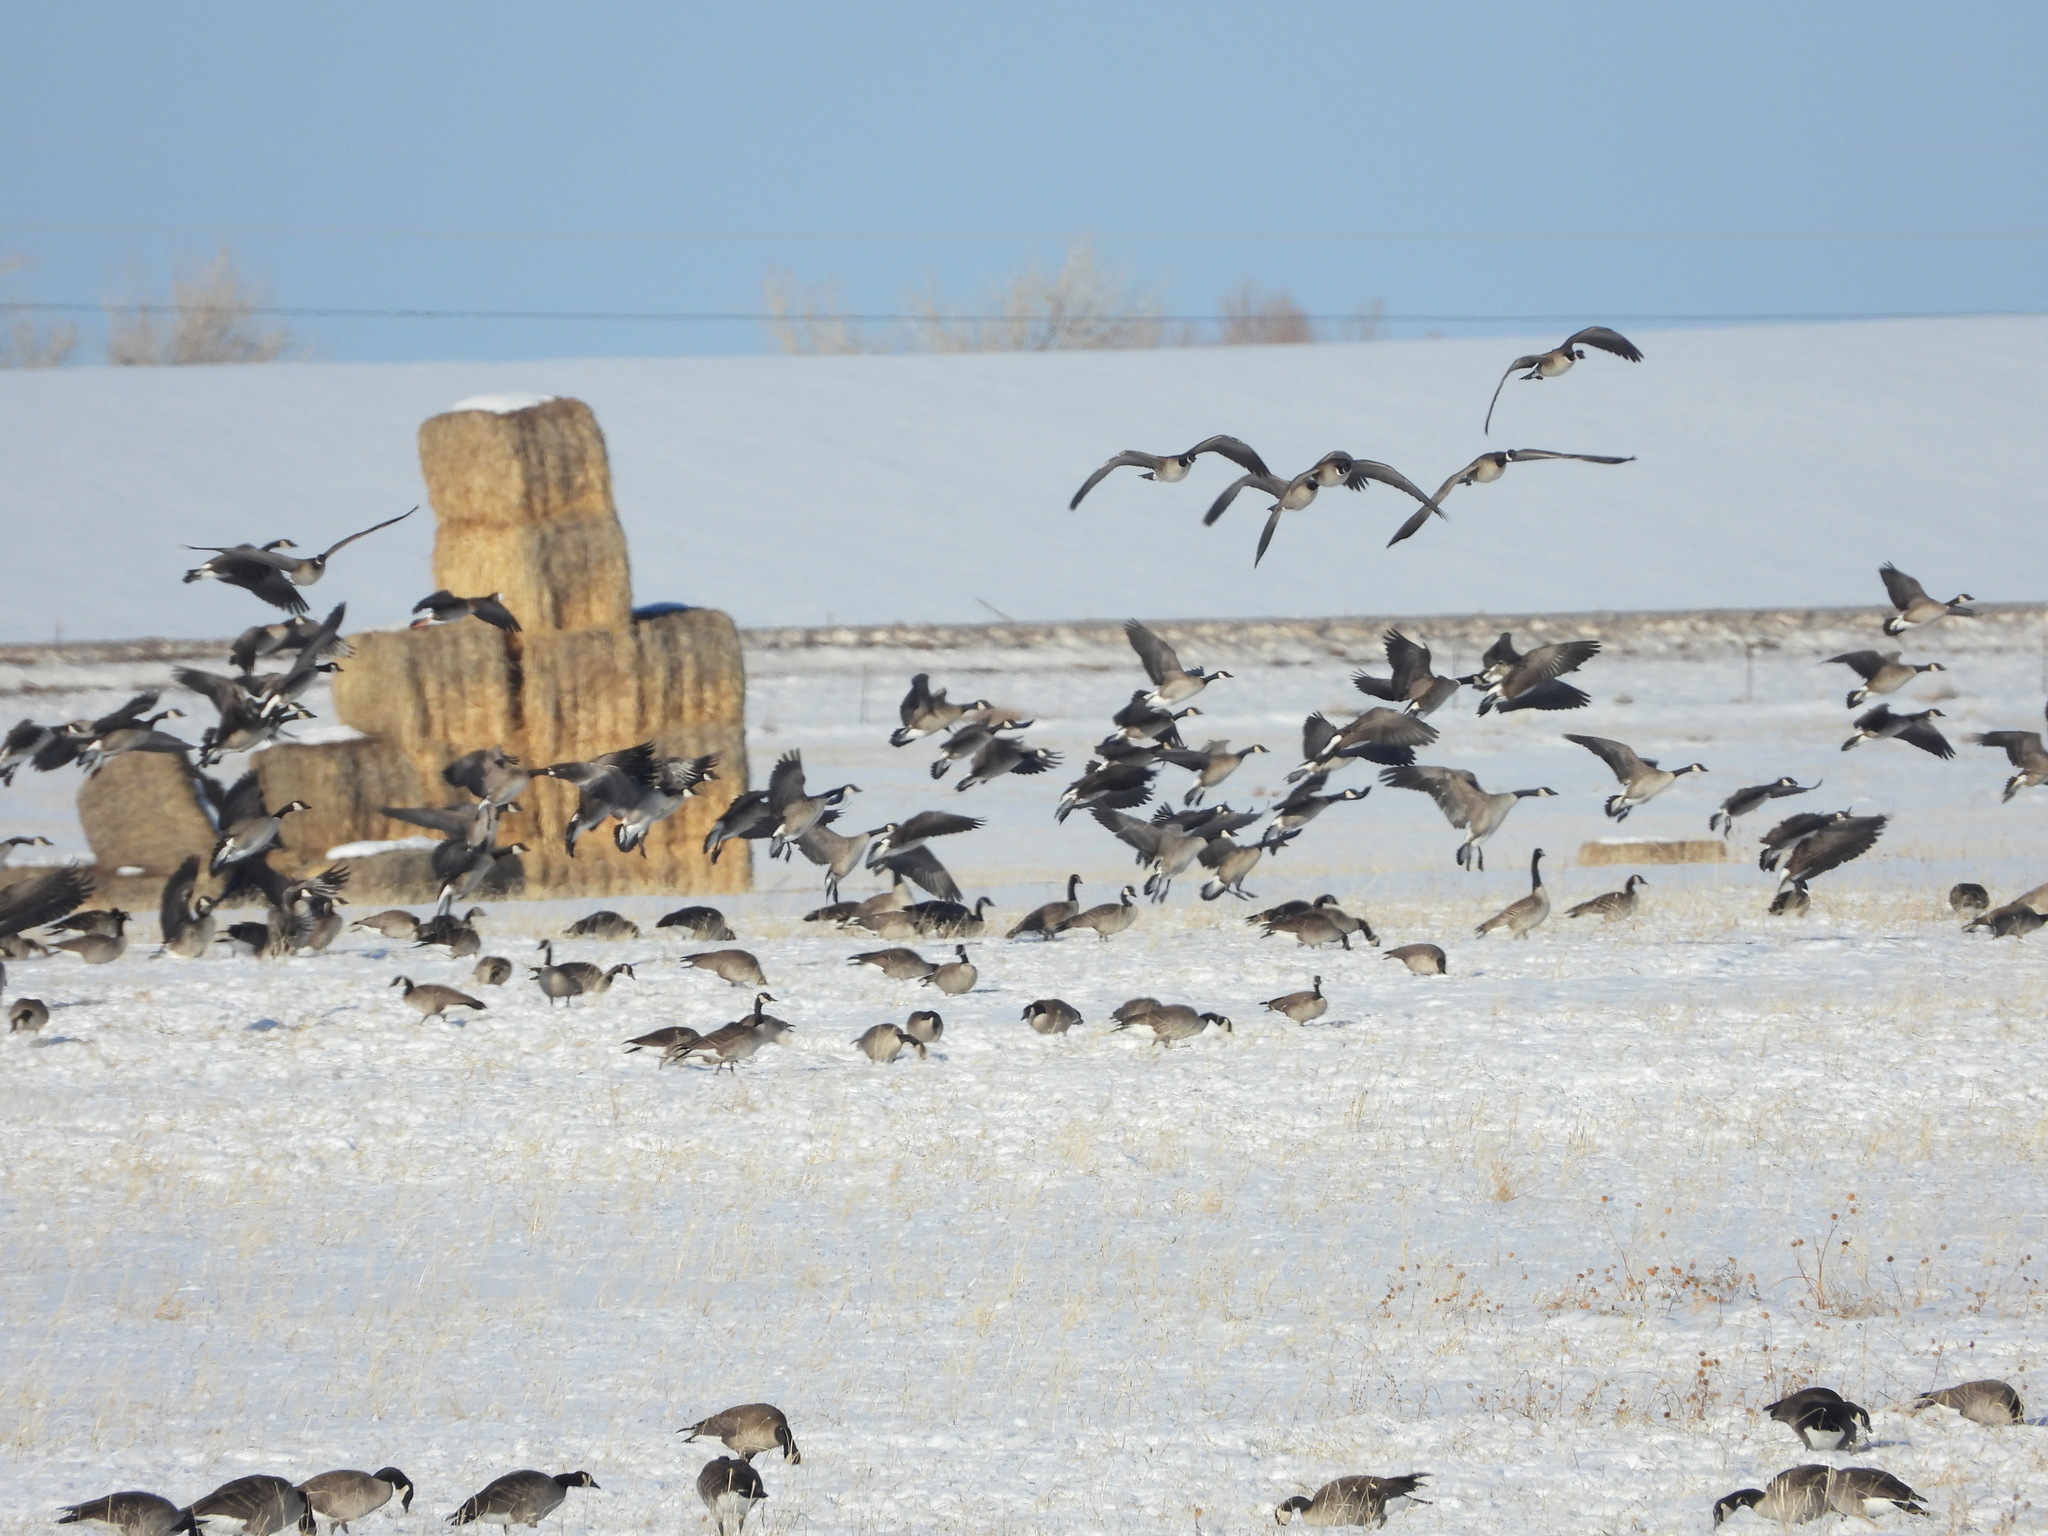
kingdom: Animalia
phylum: Chordata
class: Aves
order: Anseriformes
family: Anatidae
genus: Branta
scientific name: Branta hutchinsii
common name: Cackling goose
